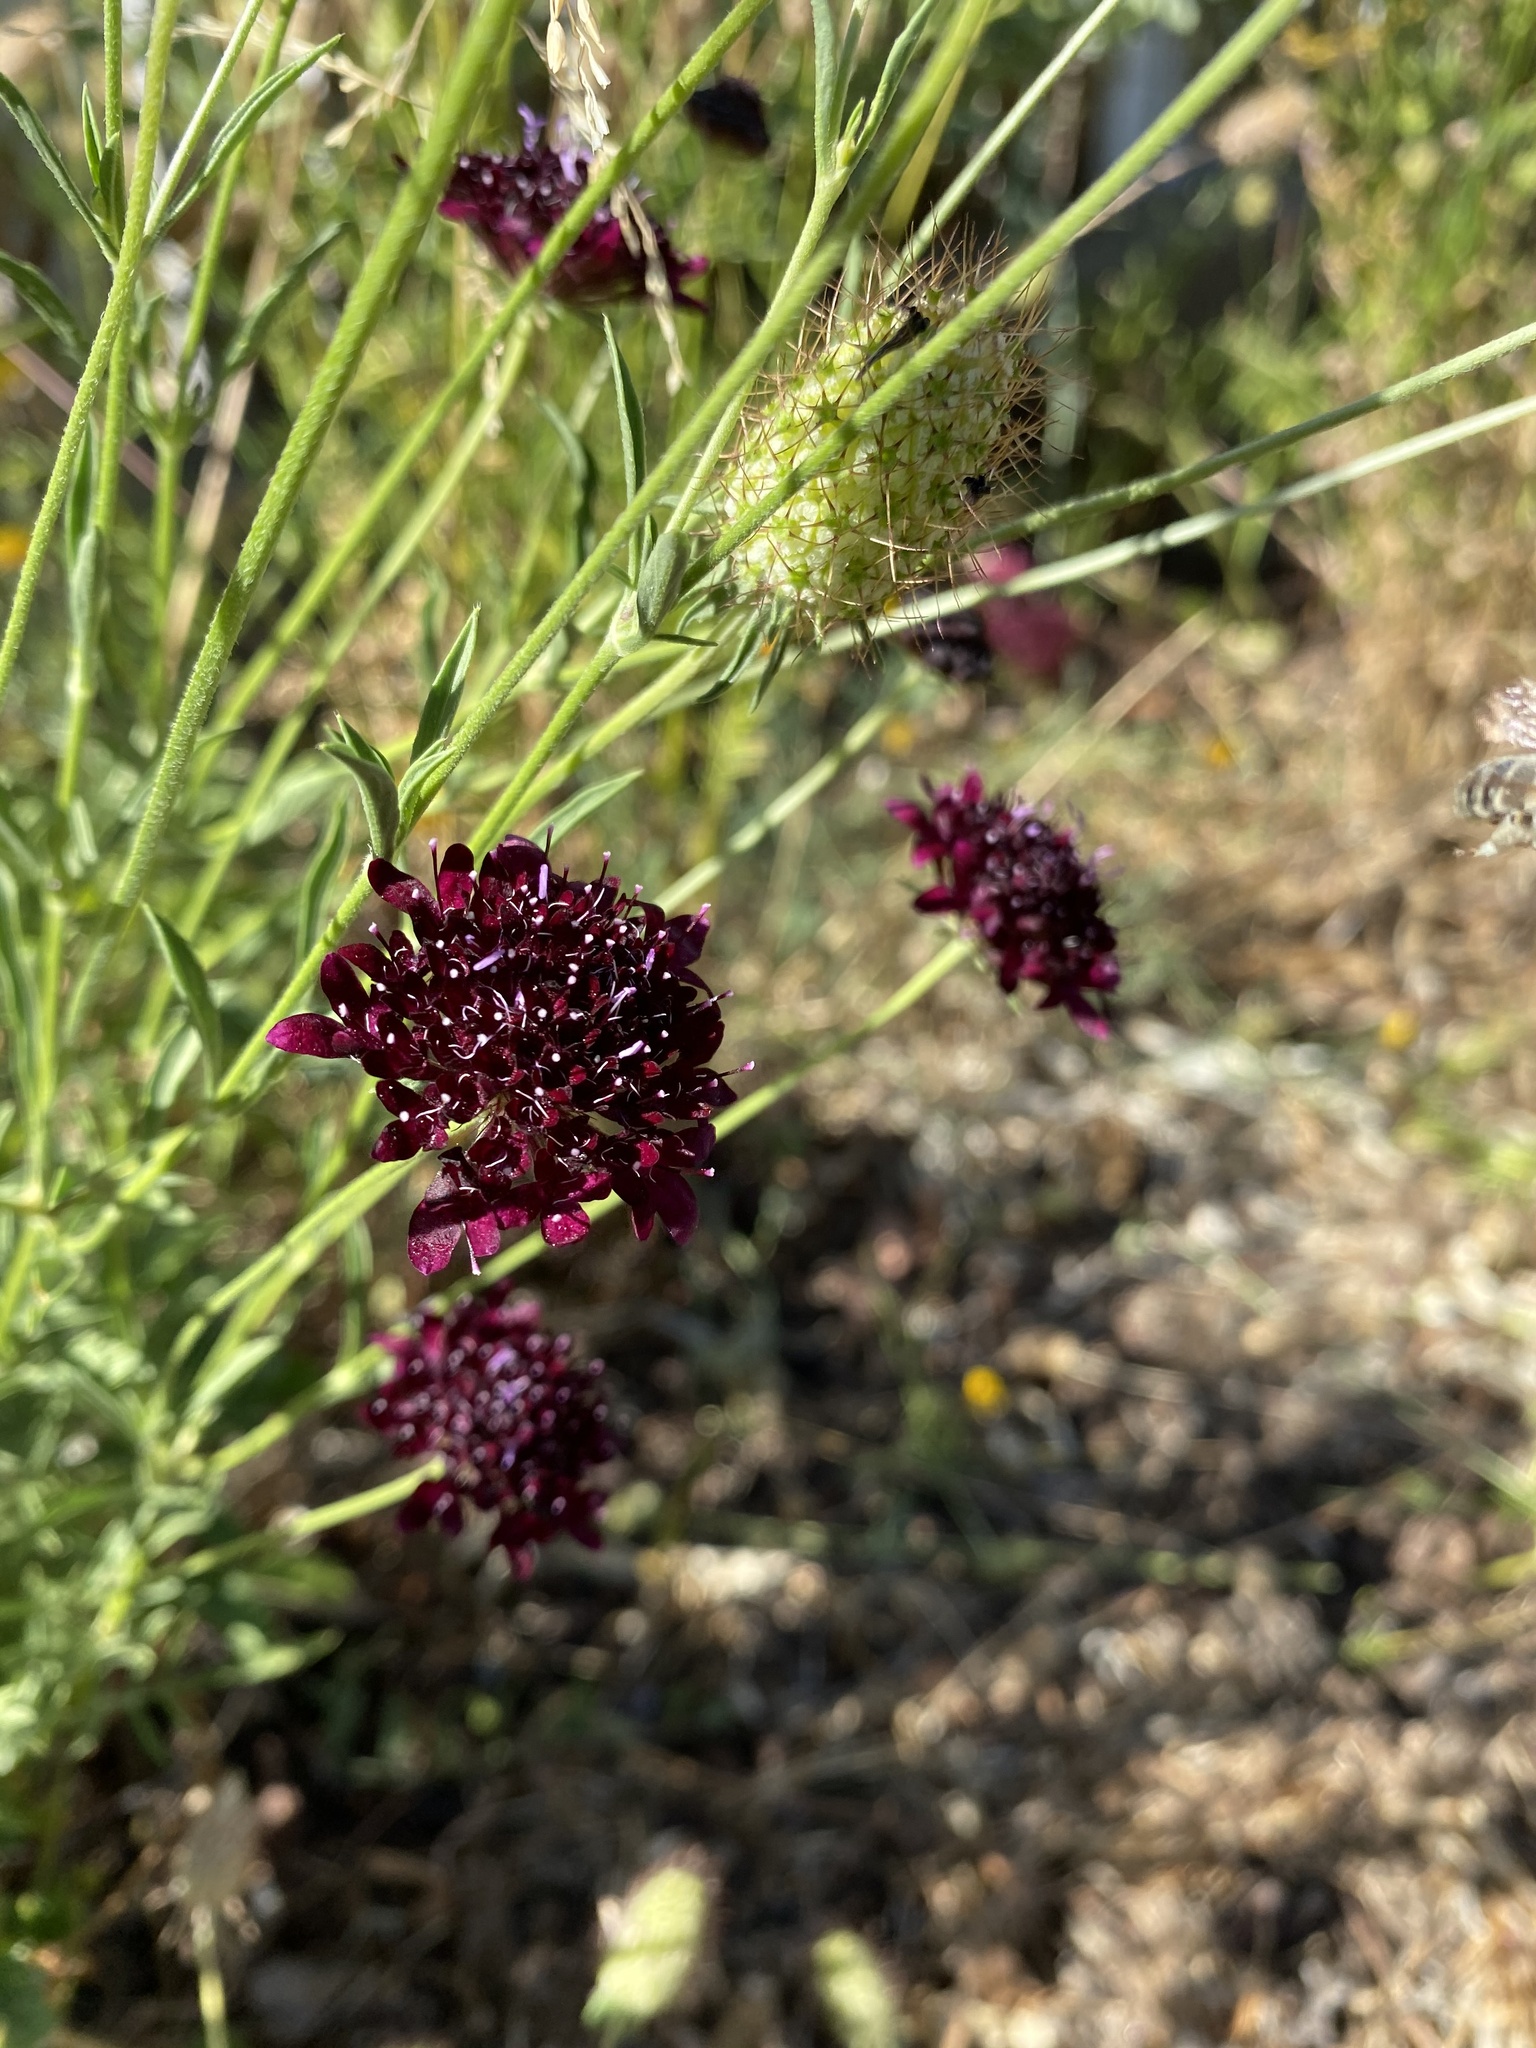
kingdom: Plantae
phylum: Tracheophyta
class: Magnoliopsida
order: Dipsacales
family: Caprifoliaceae
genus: Sixalix
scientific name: Sixalix atropurpurea
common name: Sweet scabious
